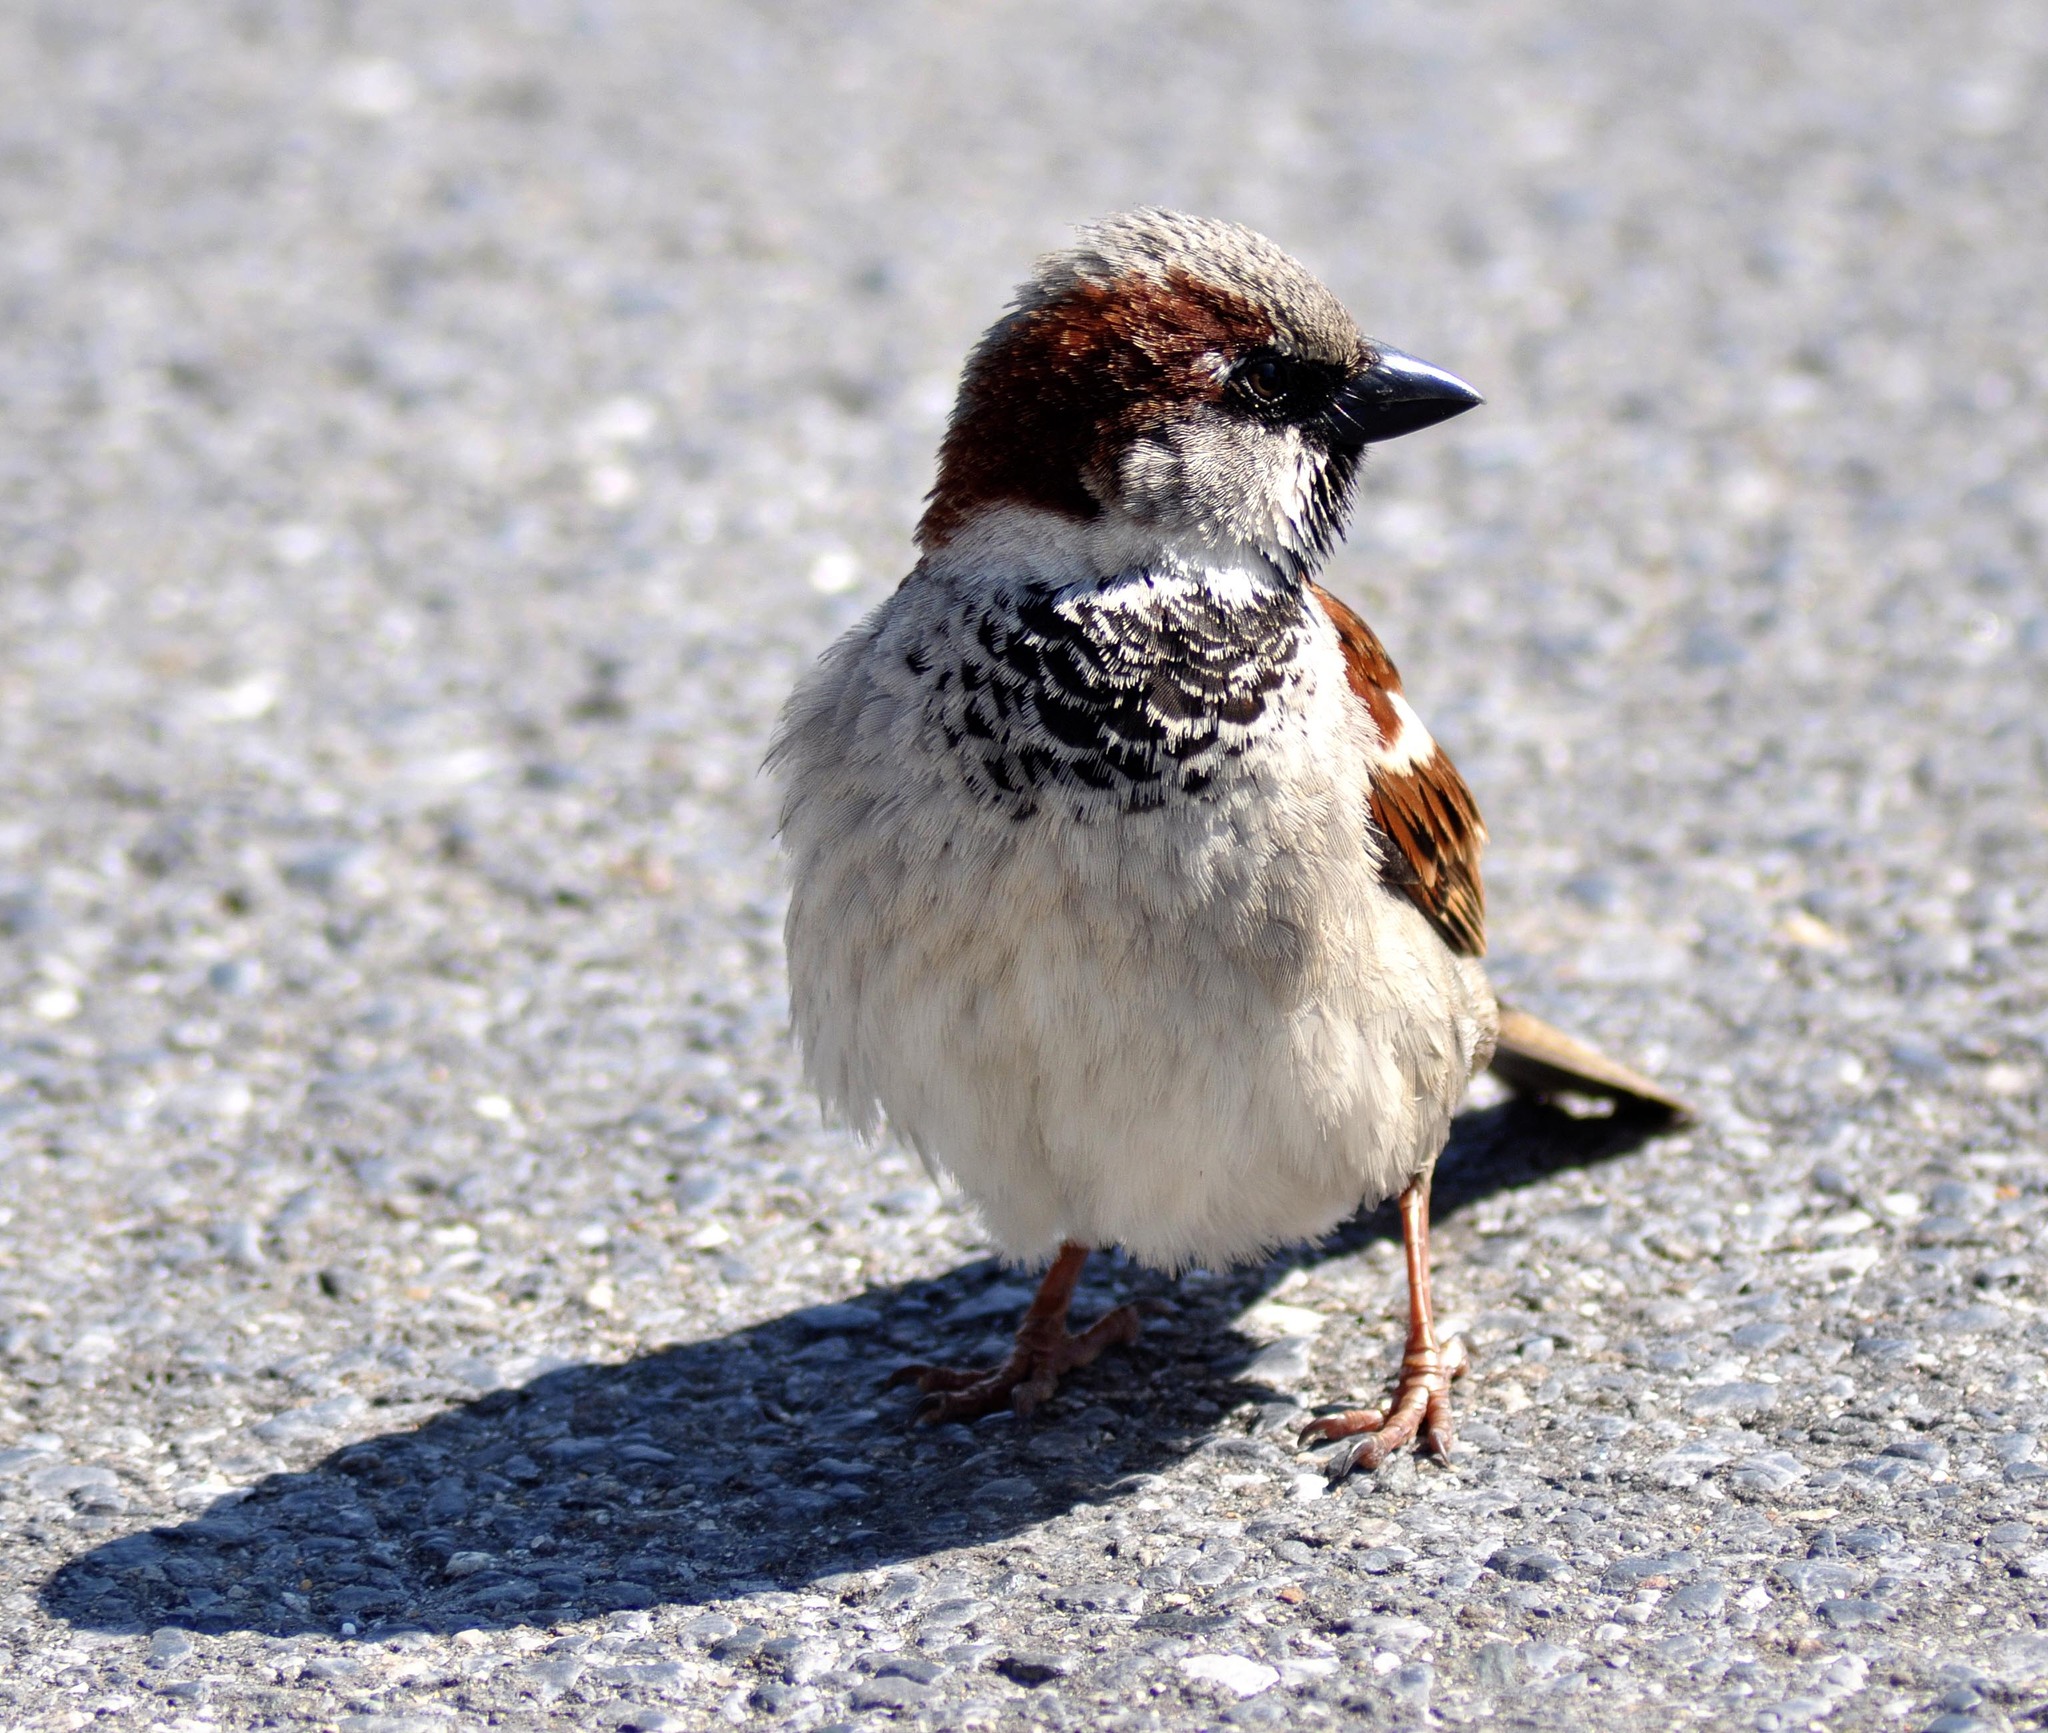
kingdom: Animalia
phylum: Chordata
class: Aves
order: Passeriformes
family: Passeridae
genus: Passer
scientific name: Passer domesticus
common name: House sparrow
